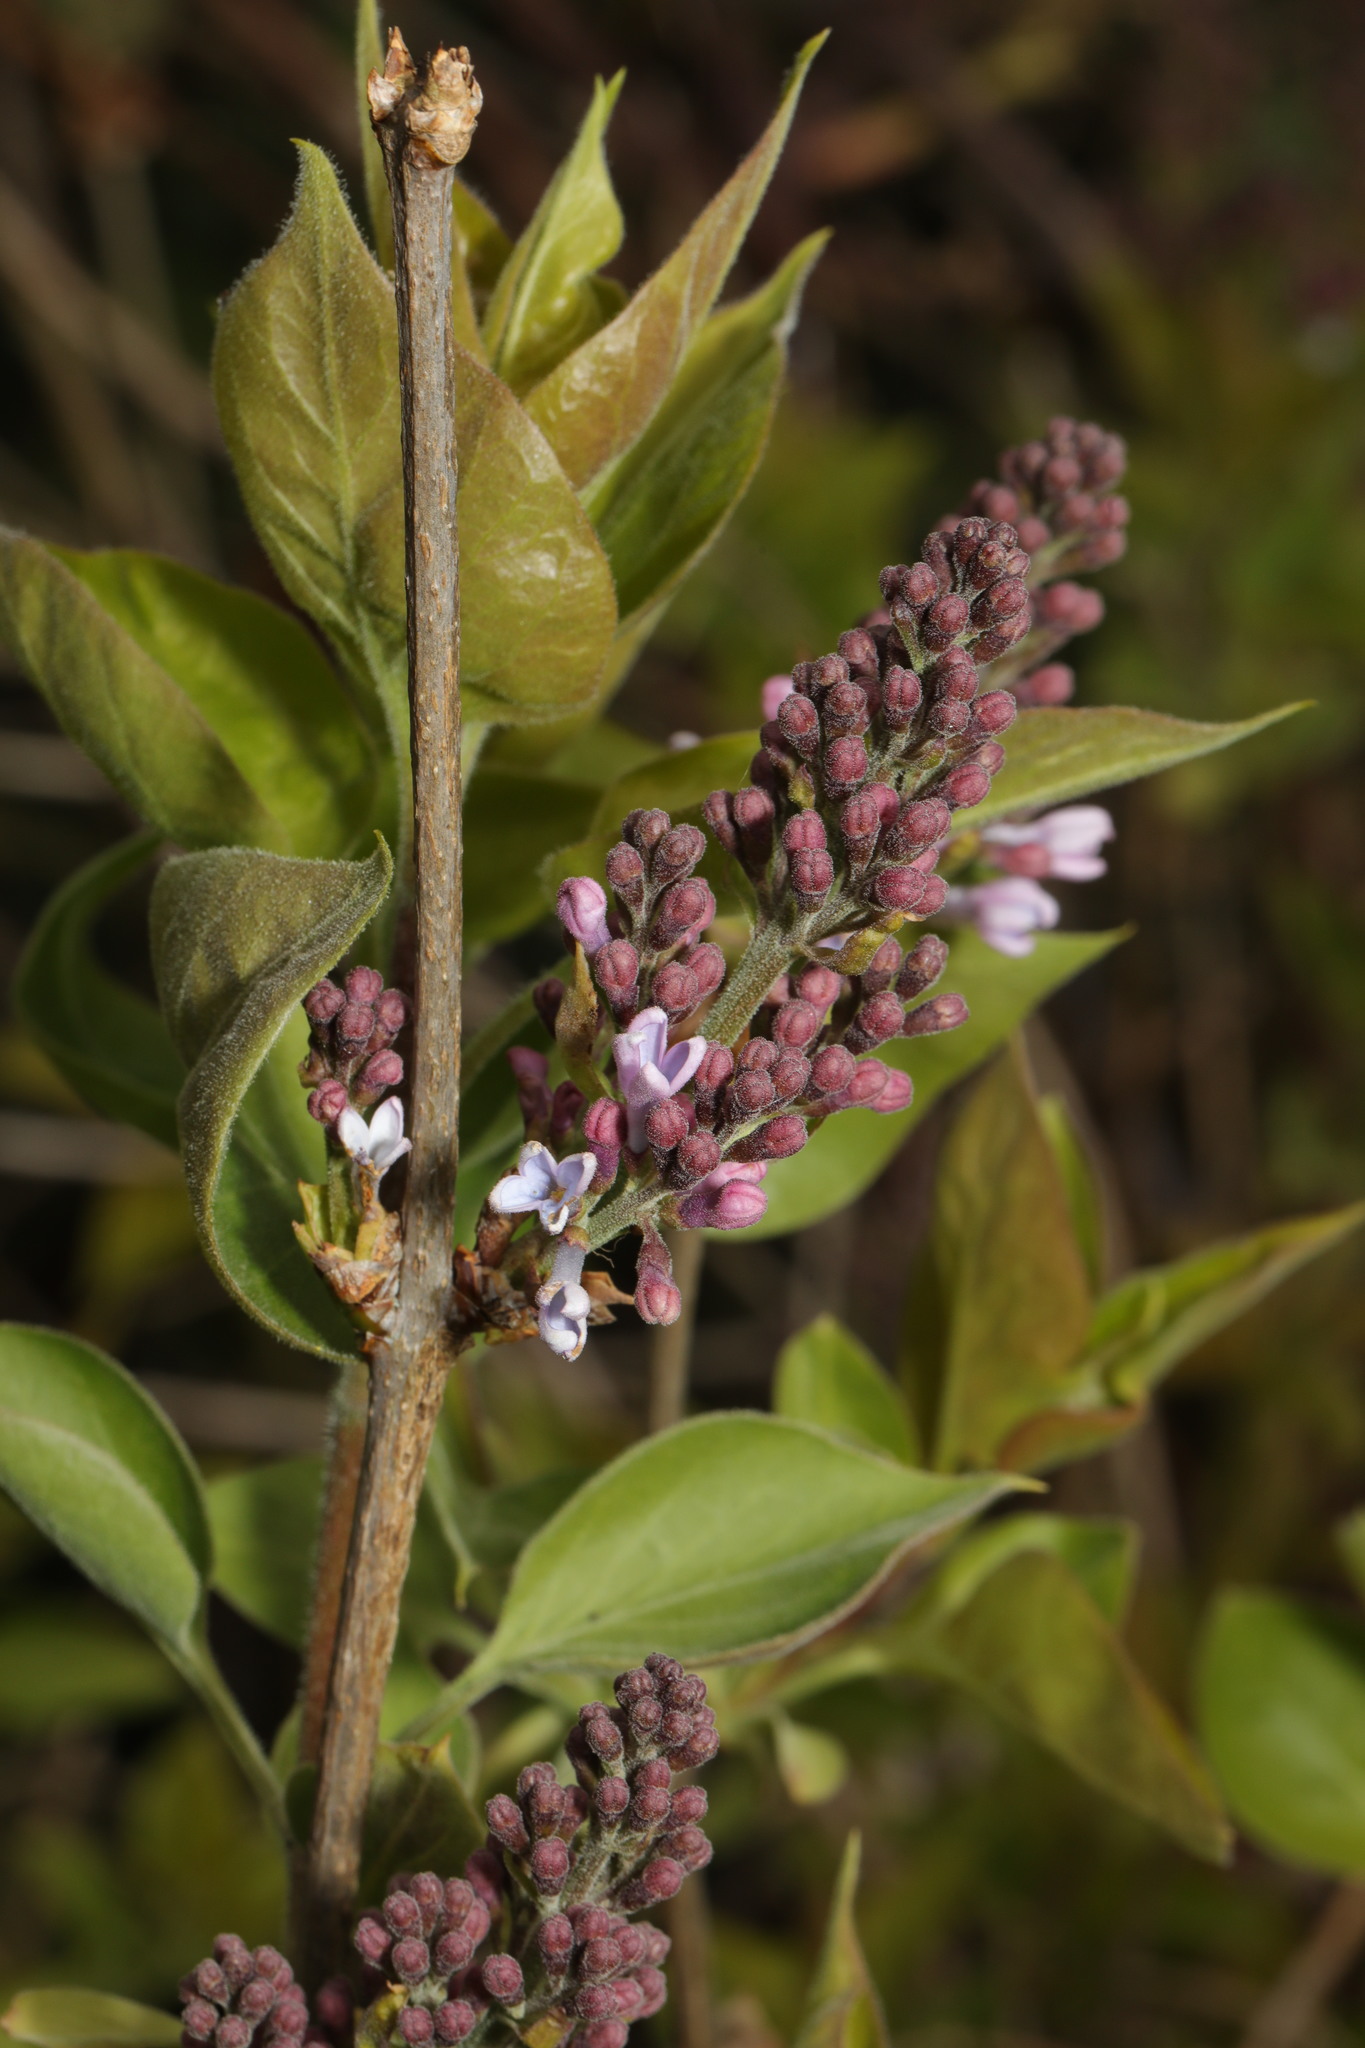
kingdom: Plantae
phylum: Tracheophyta
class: Magnoliopsida
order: Lamiales
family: Oleaceae
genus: Syringa
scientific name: Syringa vulgaris
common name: Common lilac
